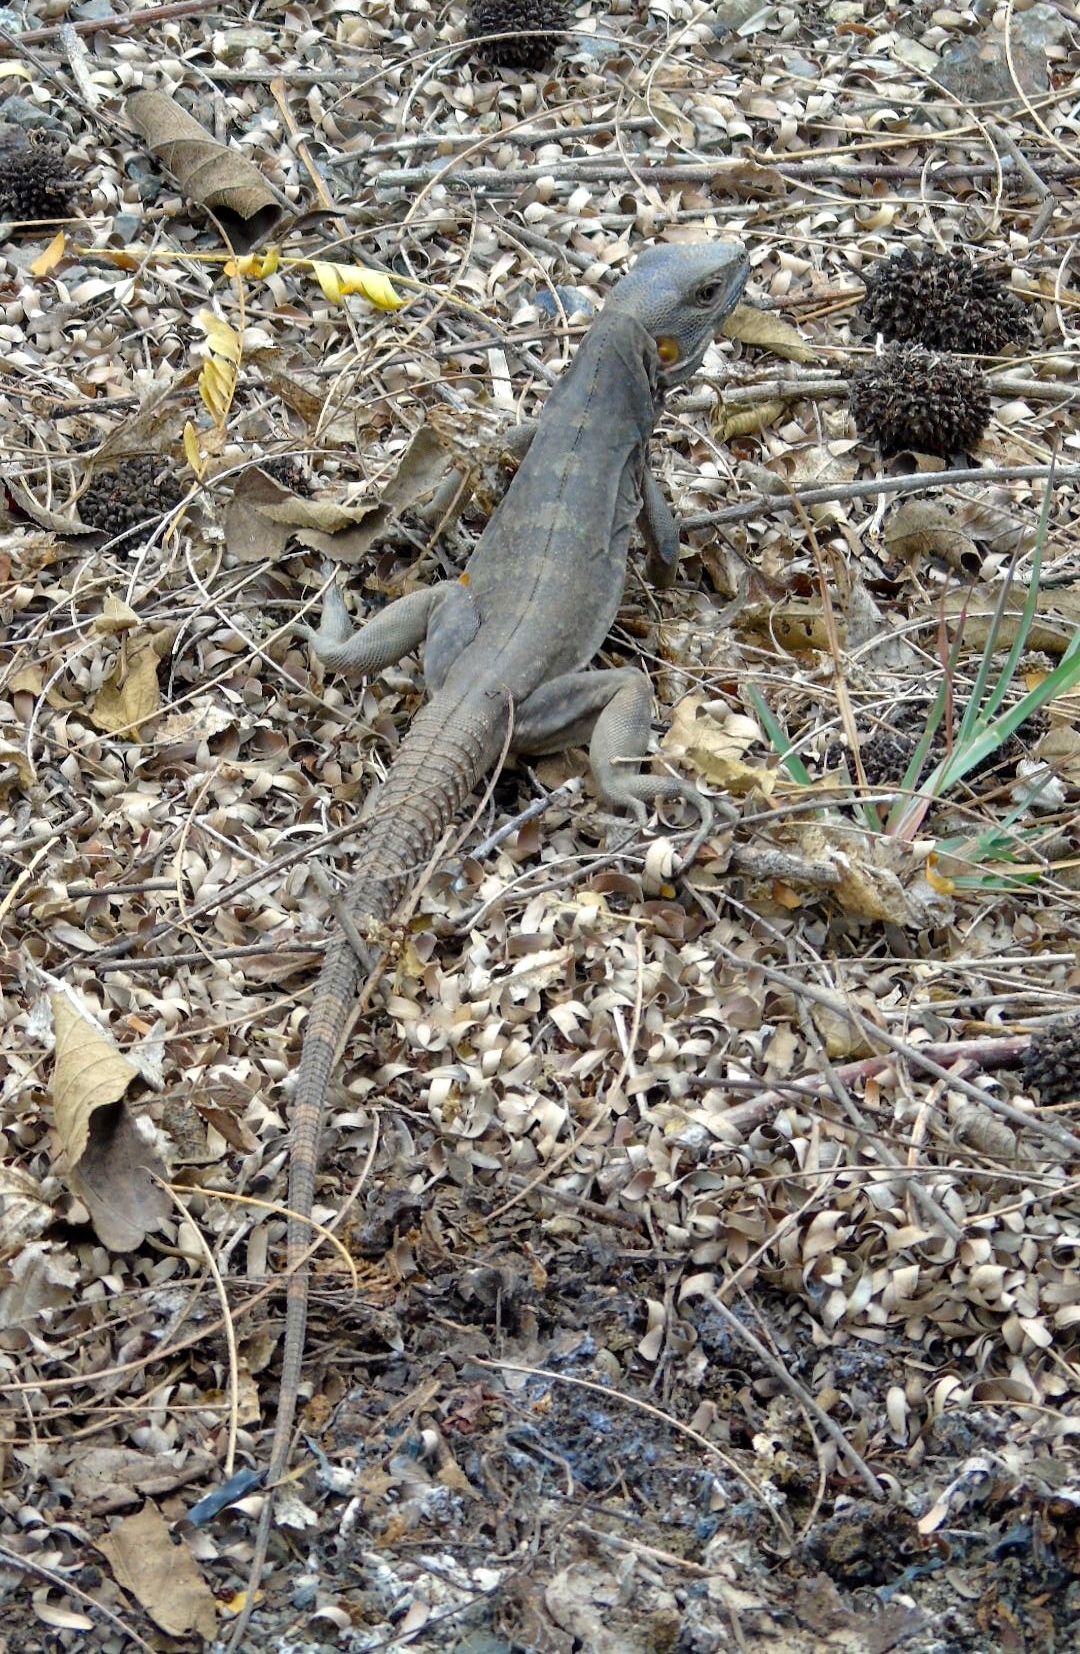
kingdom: Animalia
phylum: Chordata
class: Squamata
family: Iguanidae
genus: Ctenosaura
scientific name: Ctenosaura pectinata
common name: Guerreran spiny-tailed iguana
